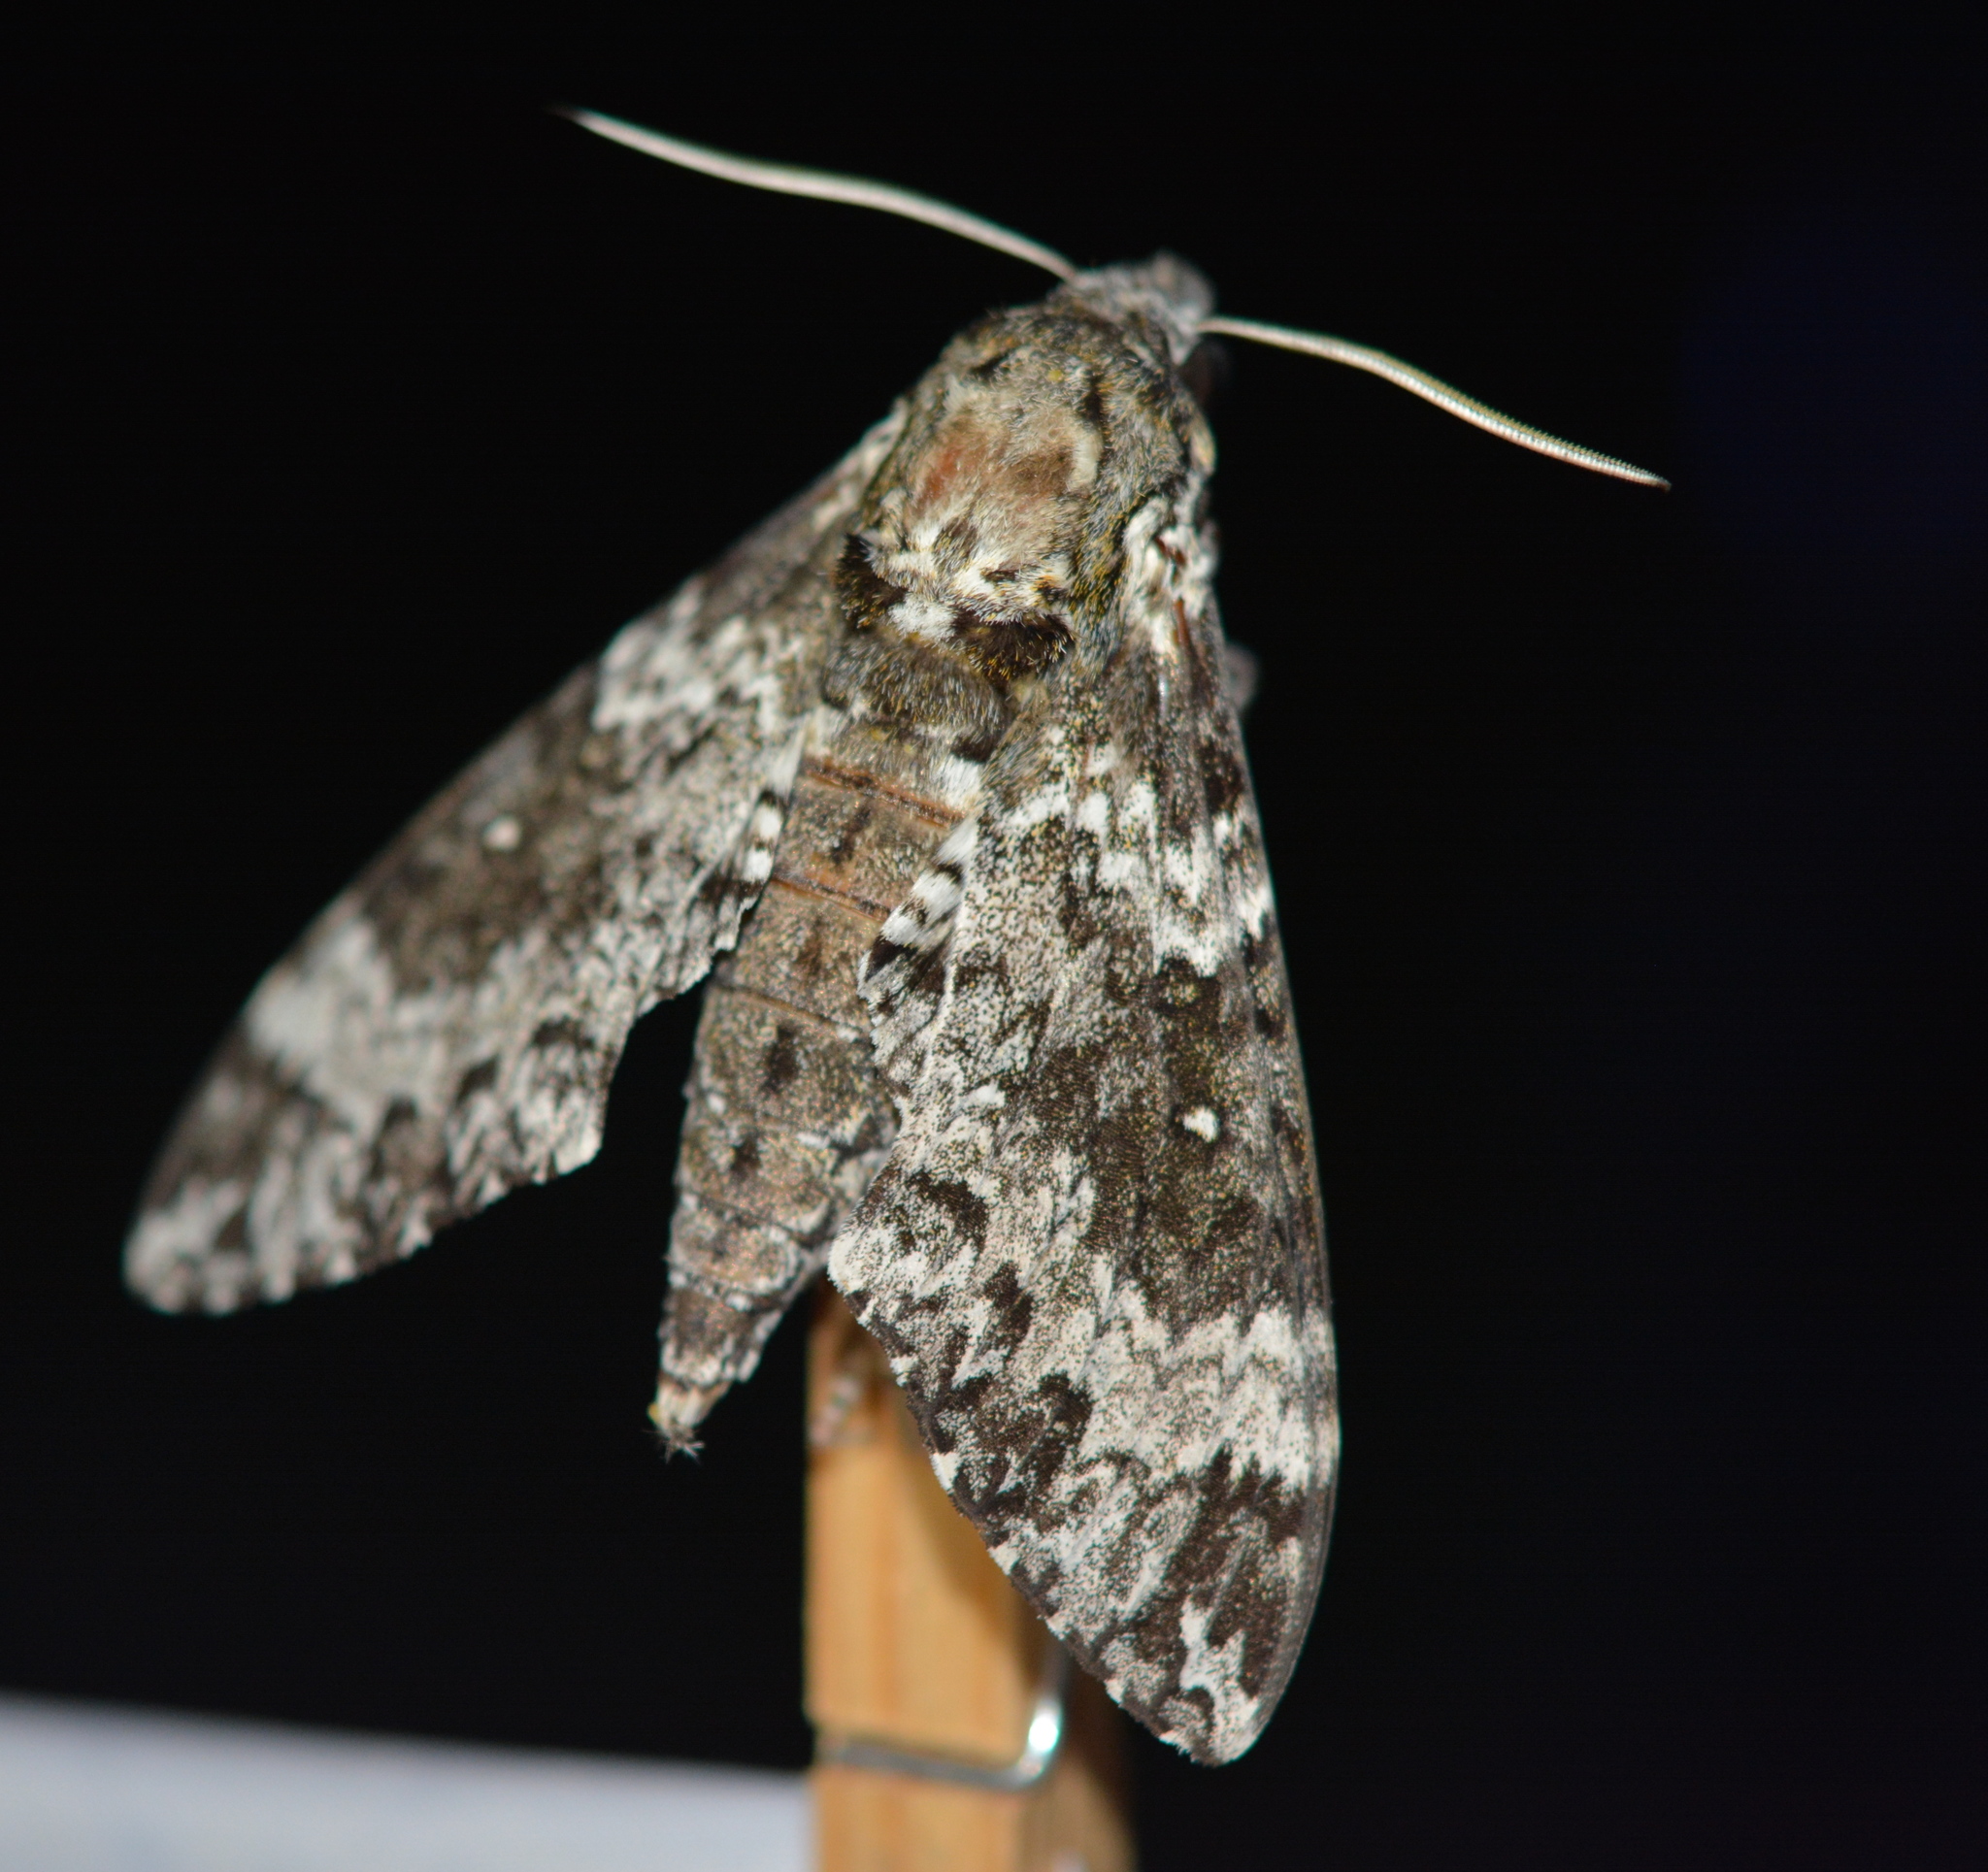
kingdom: Animalia
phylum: Arthropoda
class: Insecta
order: Lepidoptera
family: Sphingidae
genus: Manduca
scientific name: Manduca rustica
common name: Rustic sphinx
